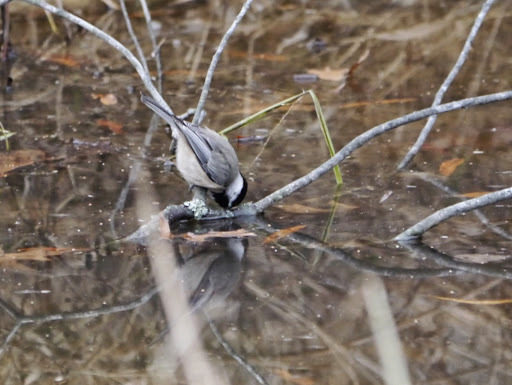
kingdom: Animalia
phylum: Chordata
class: Aves
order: Passeriformes
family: Paridae
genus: Poecile
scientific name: Poecile carolinensis
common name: Carolina chickadee
